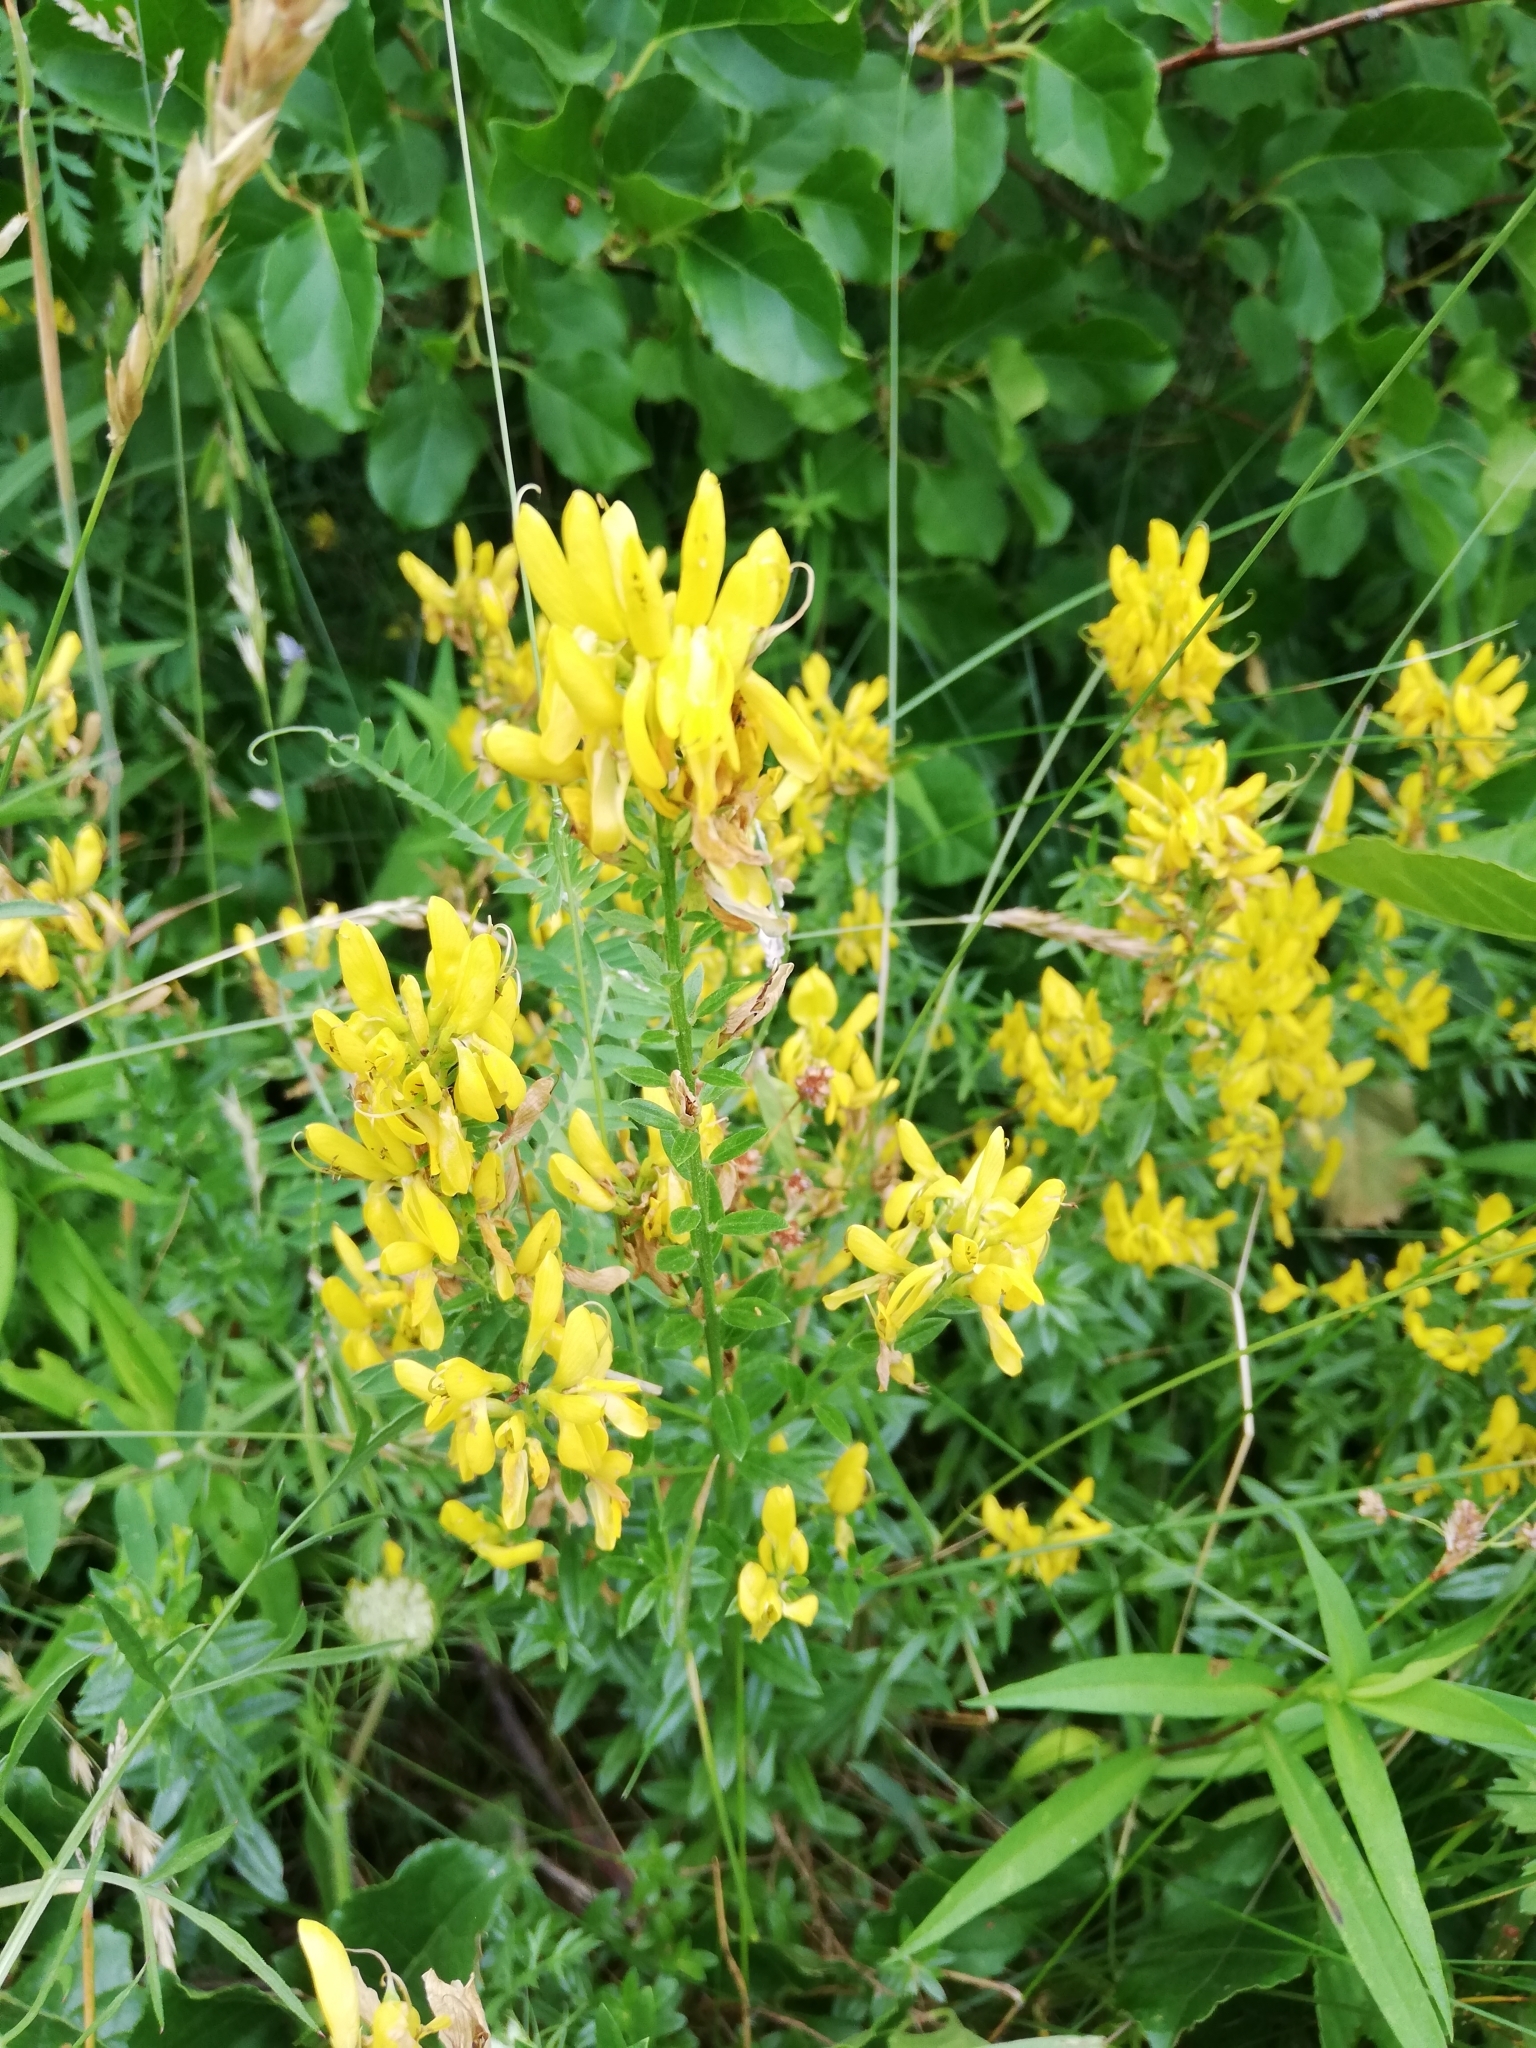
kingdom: Plantae
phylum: Tracheophyta
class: Magnoliopsida
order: Fabales
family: Fabaceae
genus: Genista
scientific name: Genista tinctoria
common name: Dyer's greenweed
